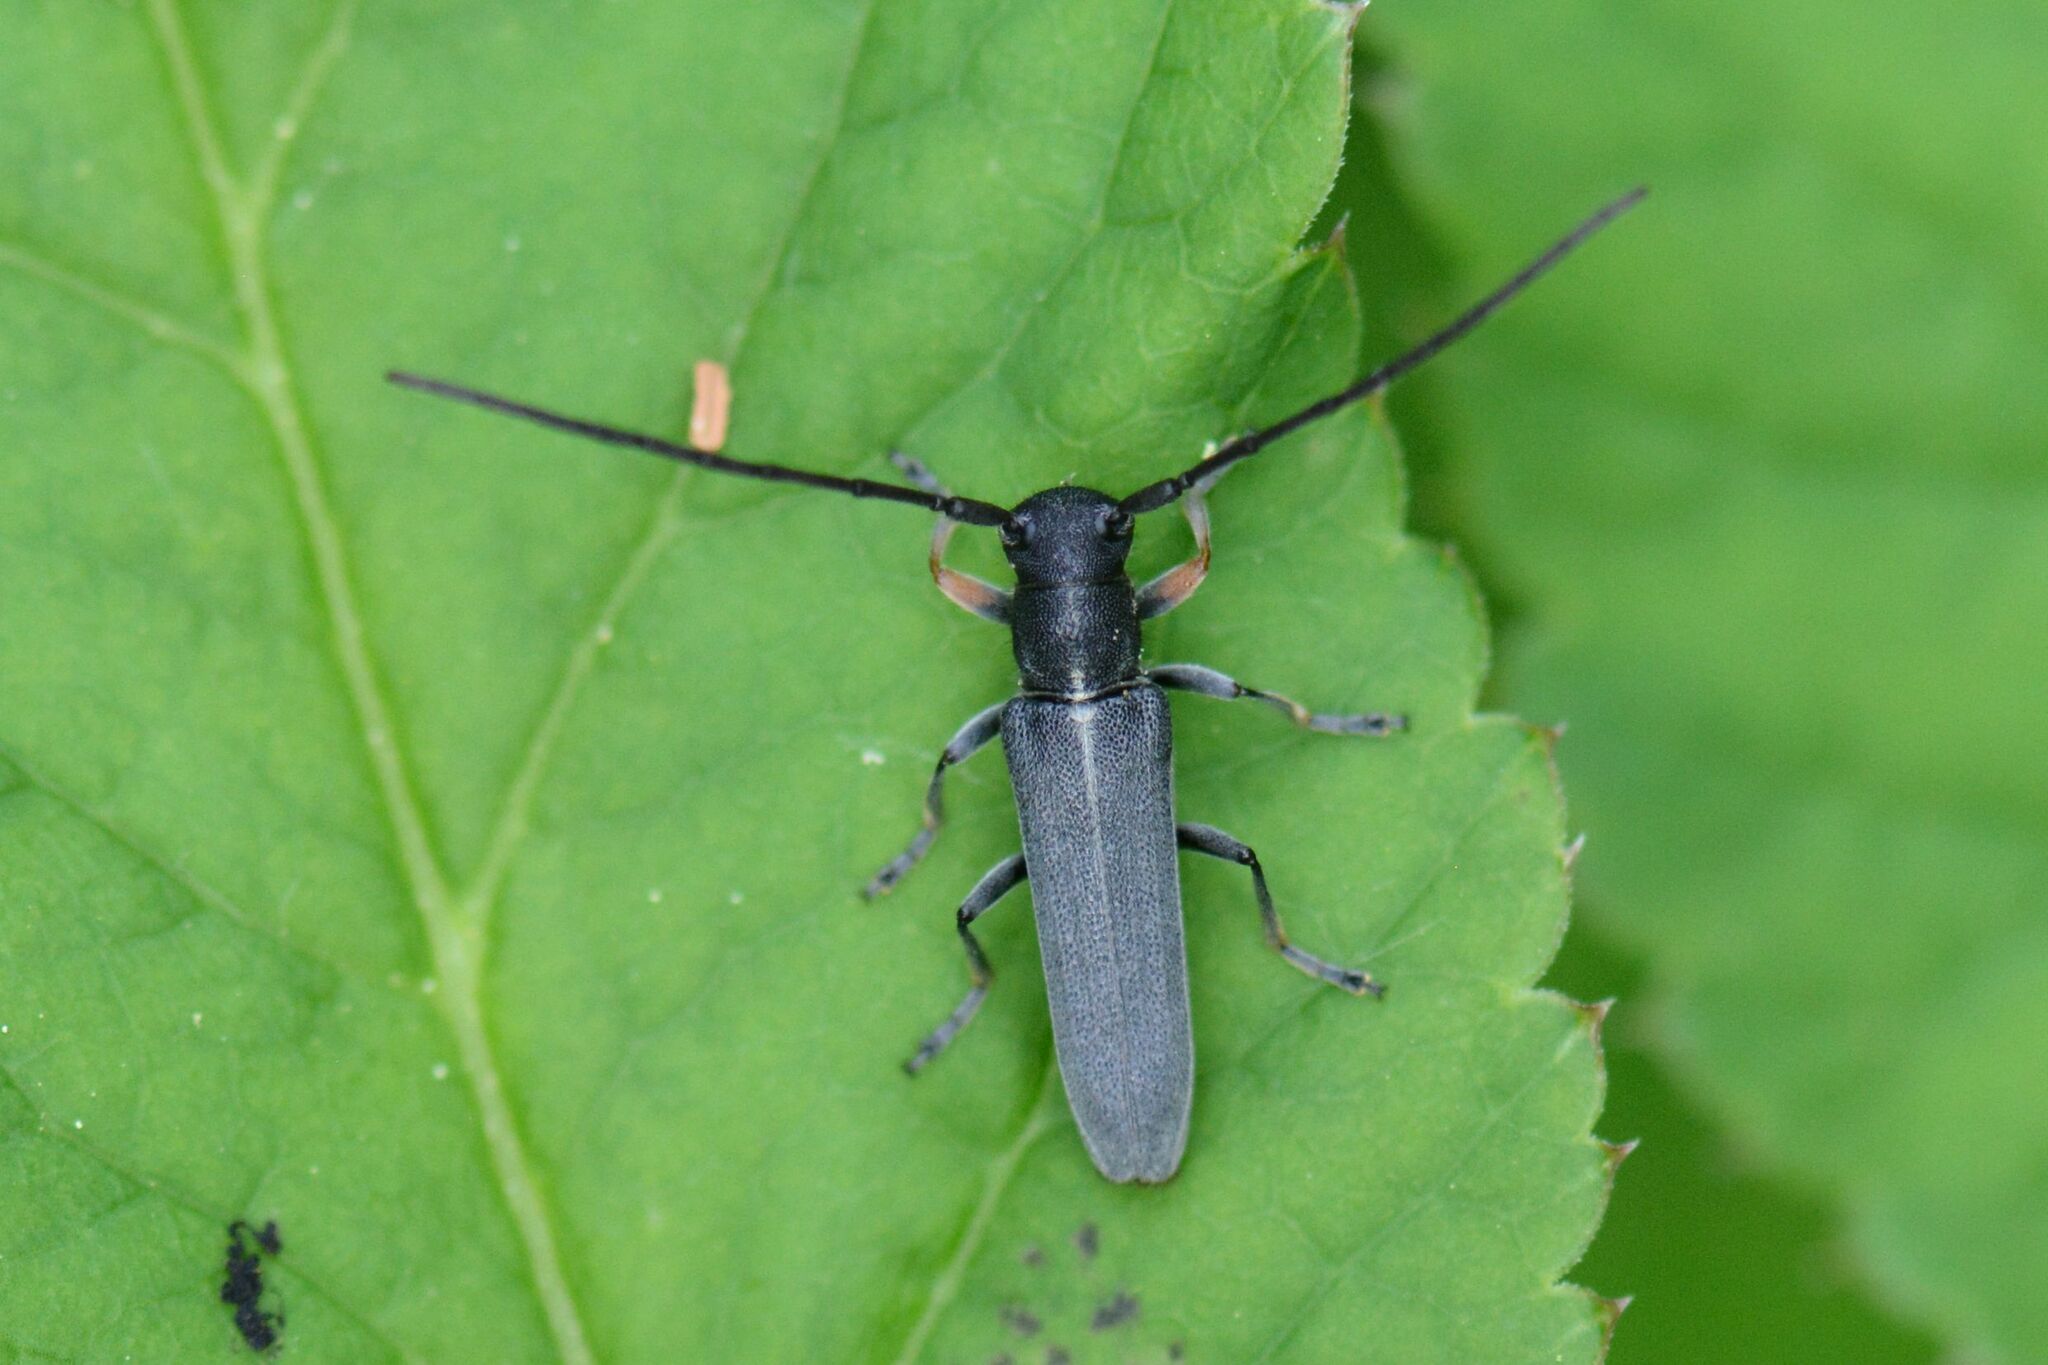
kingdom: Animalia
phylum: Arthropoda
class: Insecta
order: Coleoptera
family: Cerambycidae
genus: Phytoecia
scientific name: Phytoecia cylindrica
